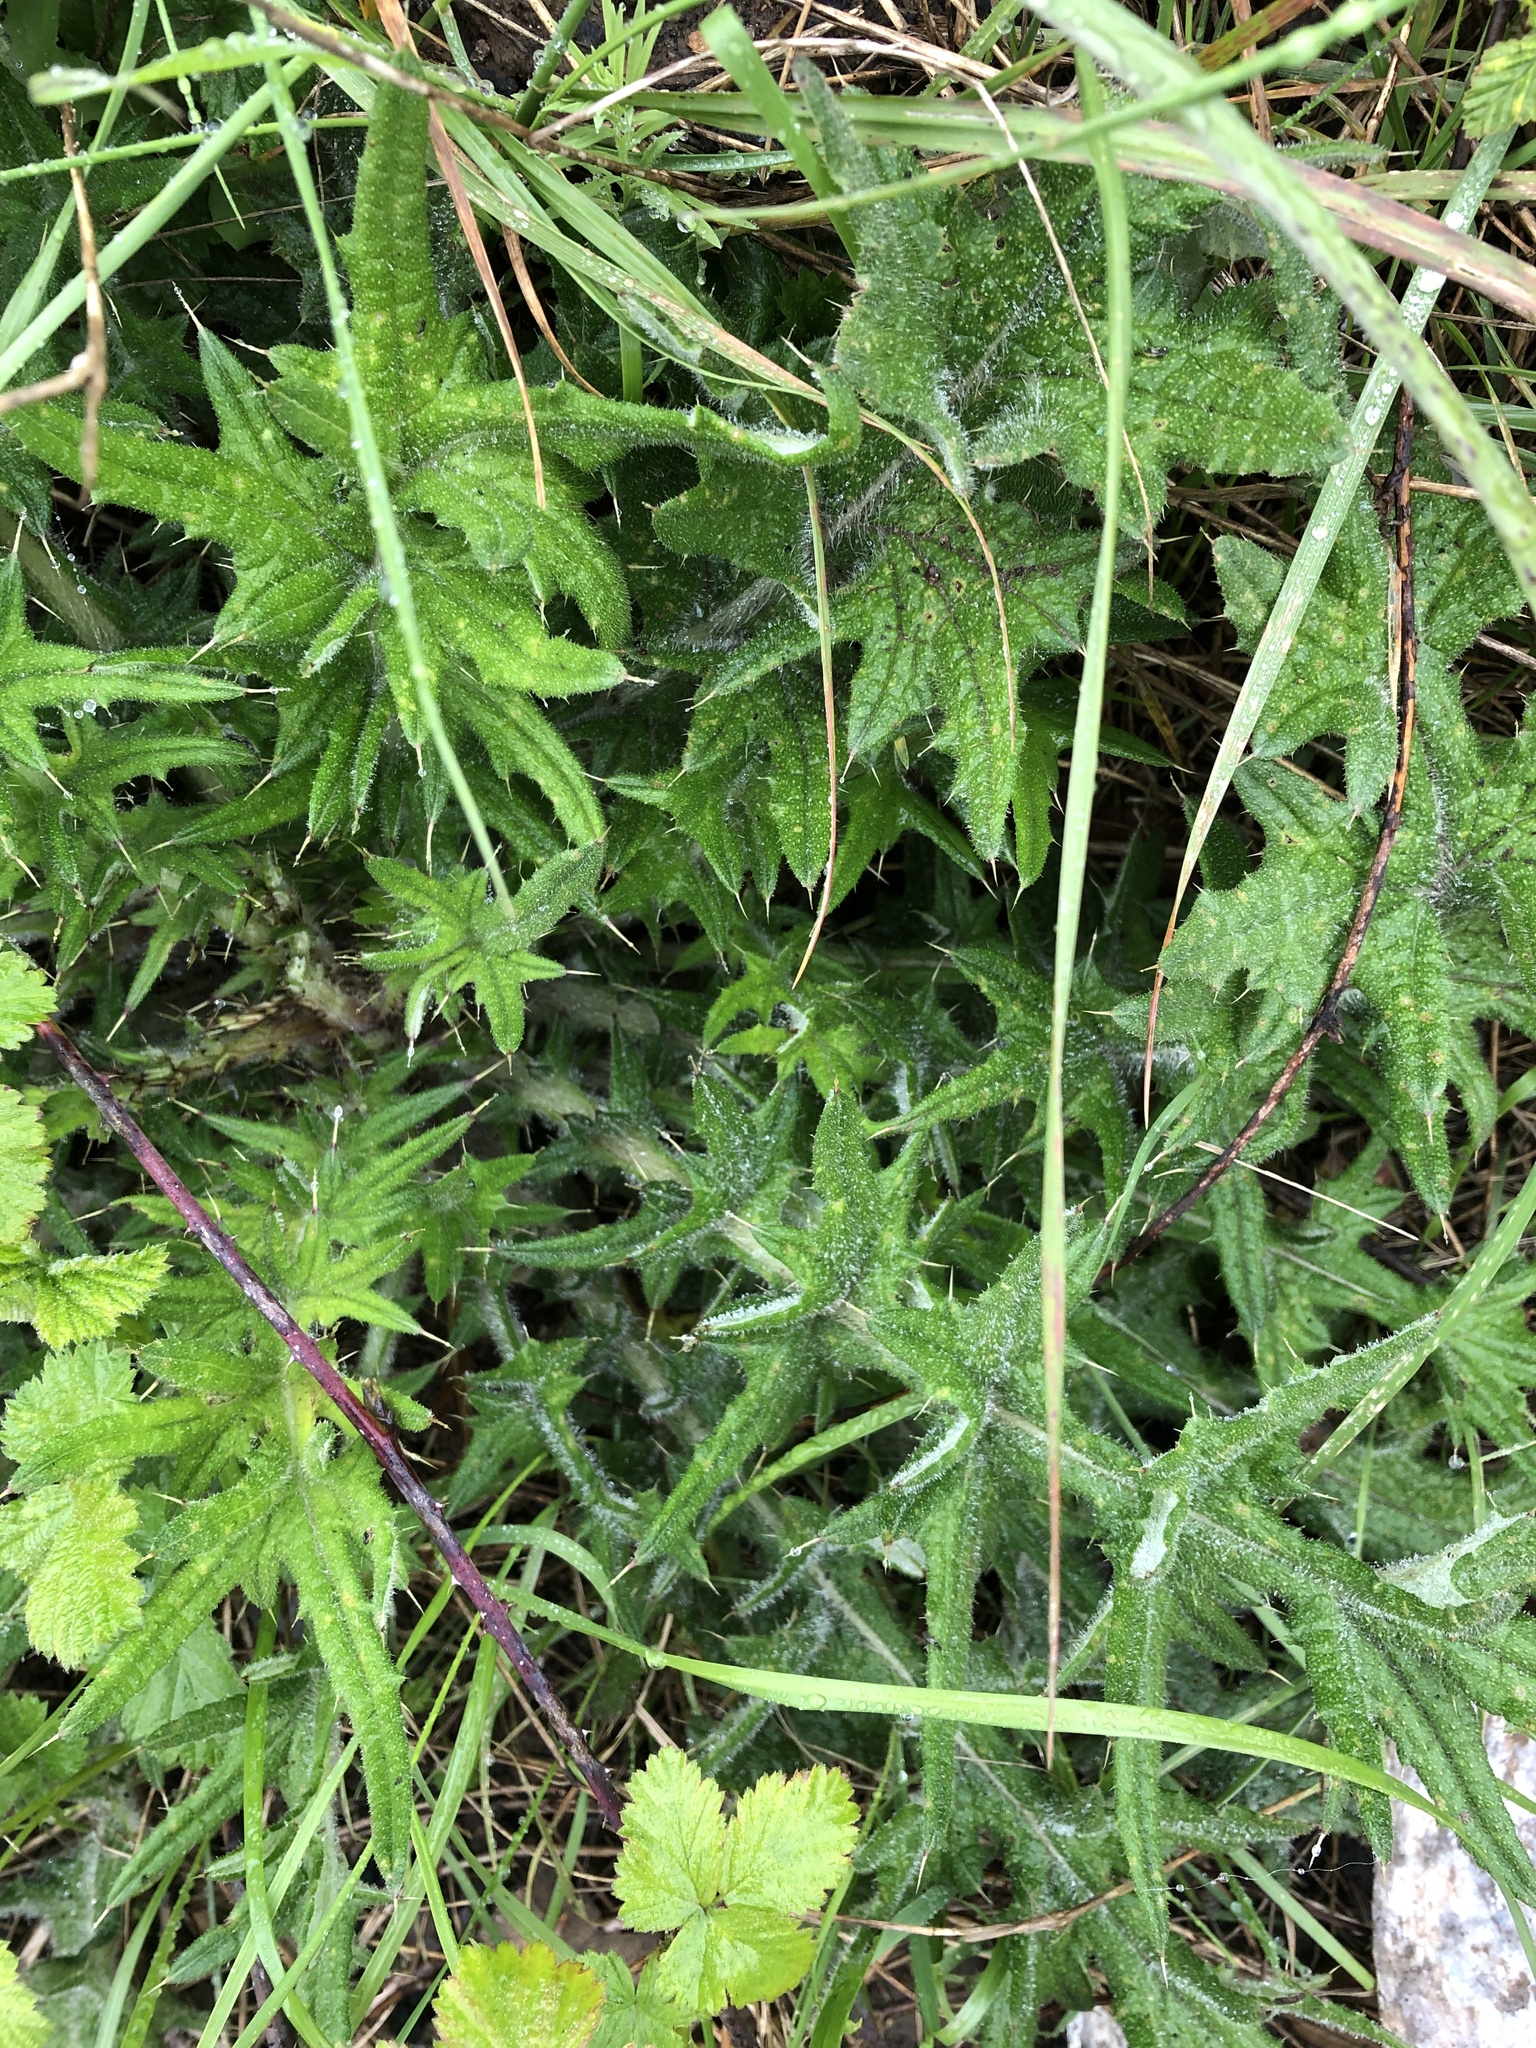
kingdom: Plantae
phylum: Tracheophyta
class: Magnoliopsida
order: Asterales
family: Asteraceae
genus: Cirsium
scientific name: Cirsium vulgare
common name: Bull thistle
